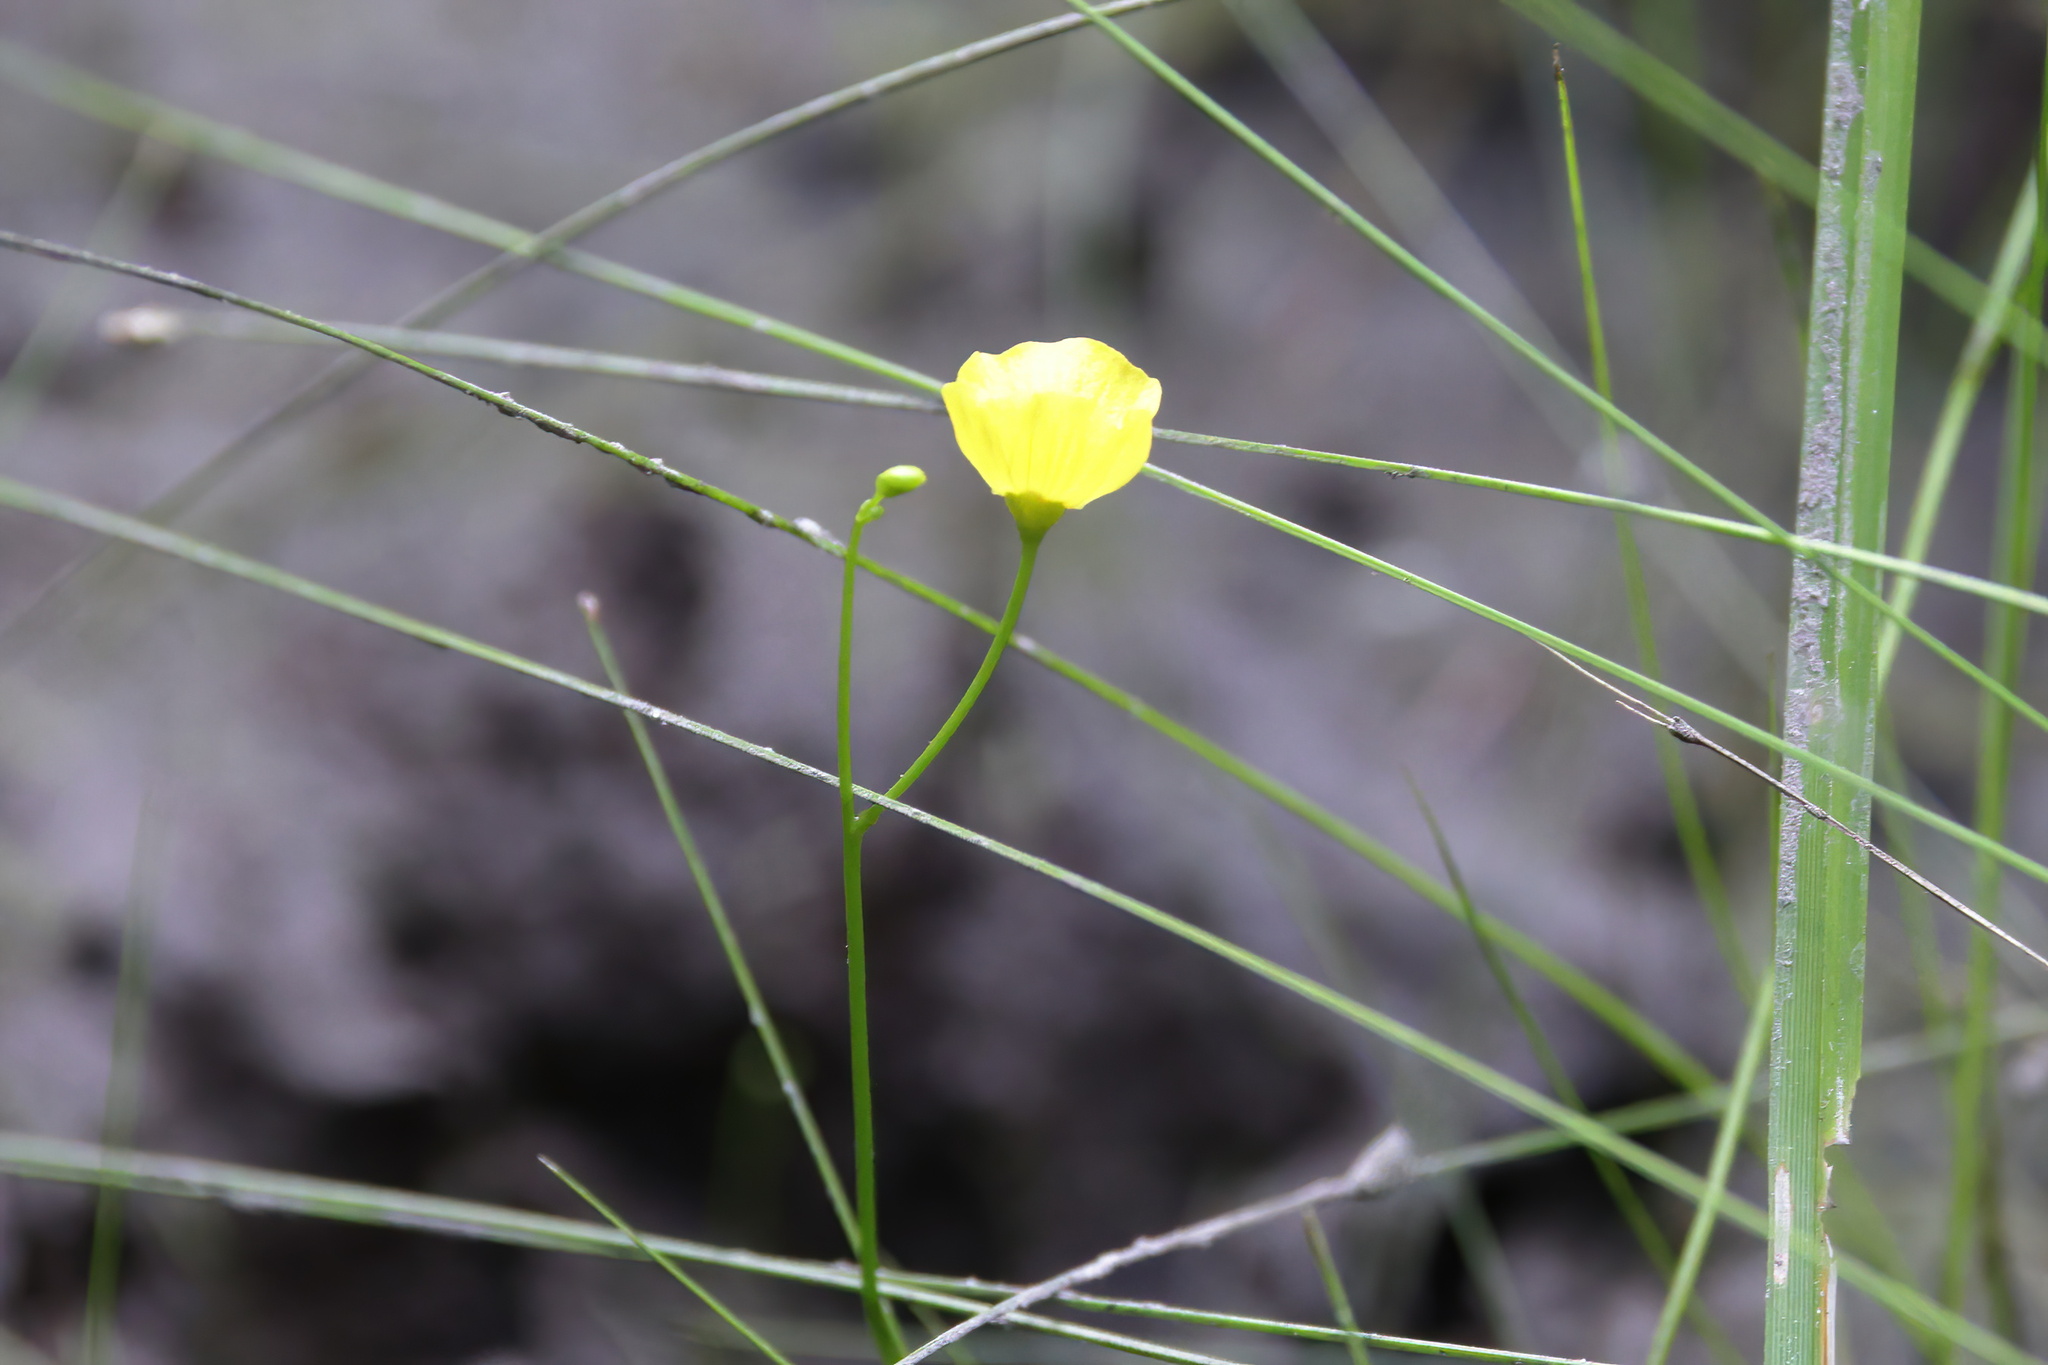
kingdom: Plantae
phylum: Tracheophyta
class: Magnoliopsida
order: Lamiales
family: Lentibulariaceae
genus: Utricularia
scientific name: Utricularia gibba
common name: Humped bladderwort
